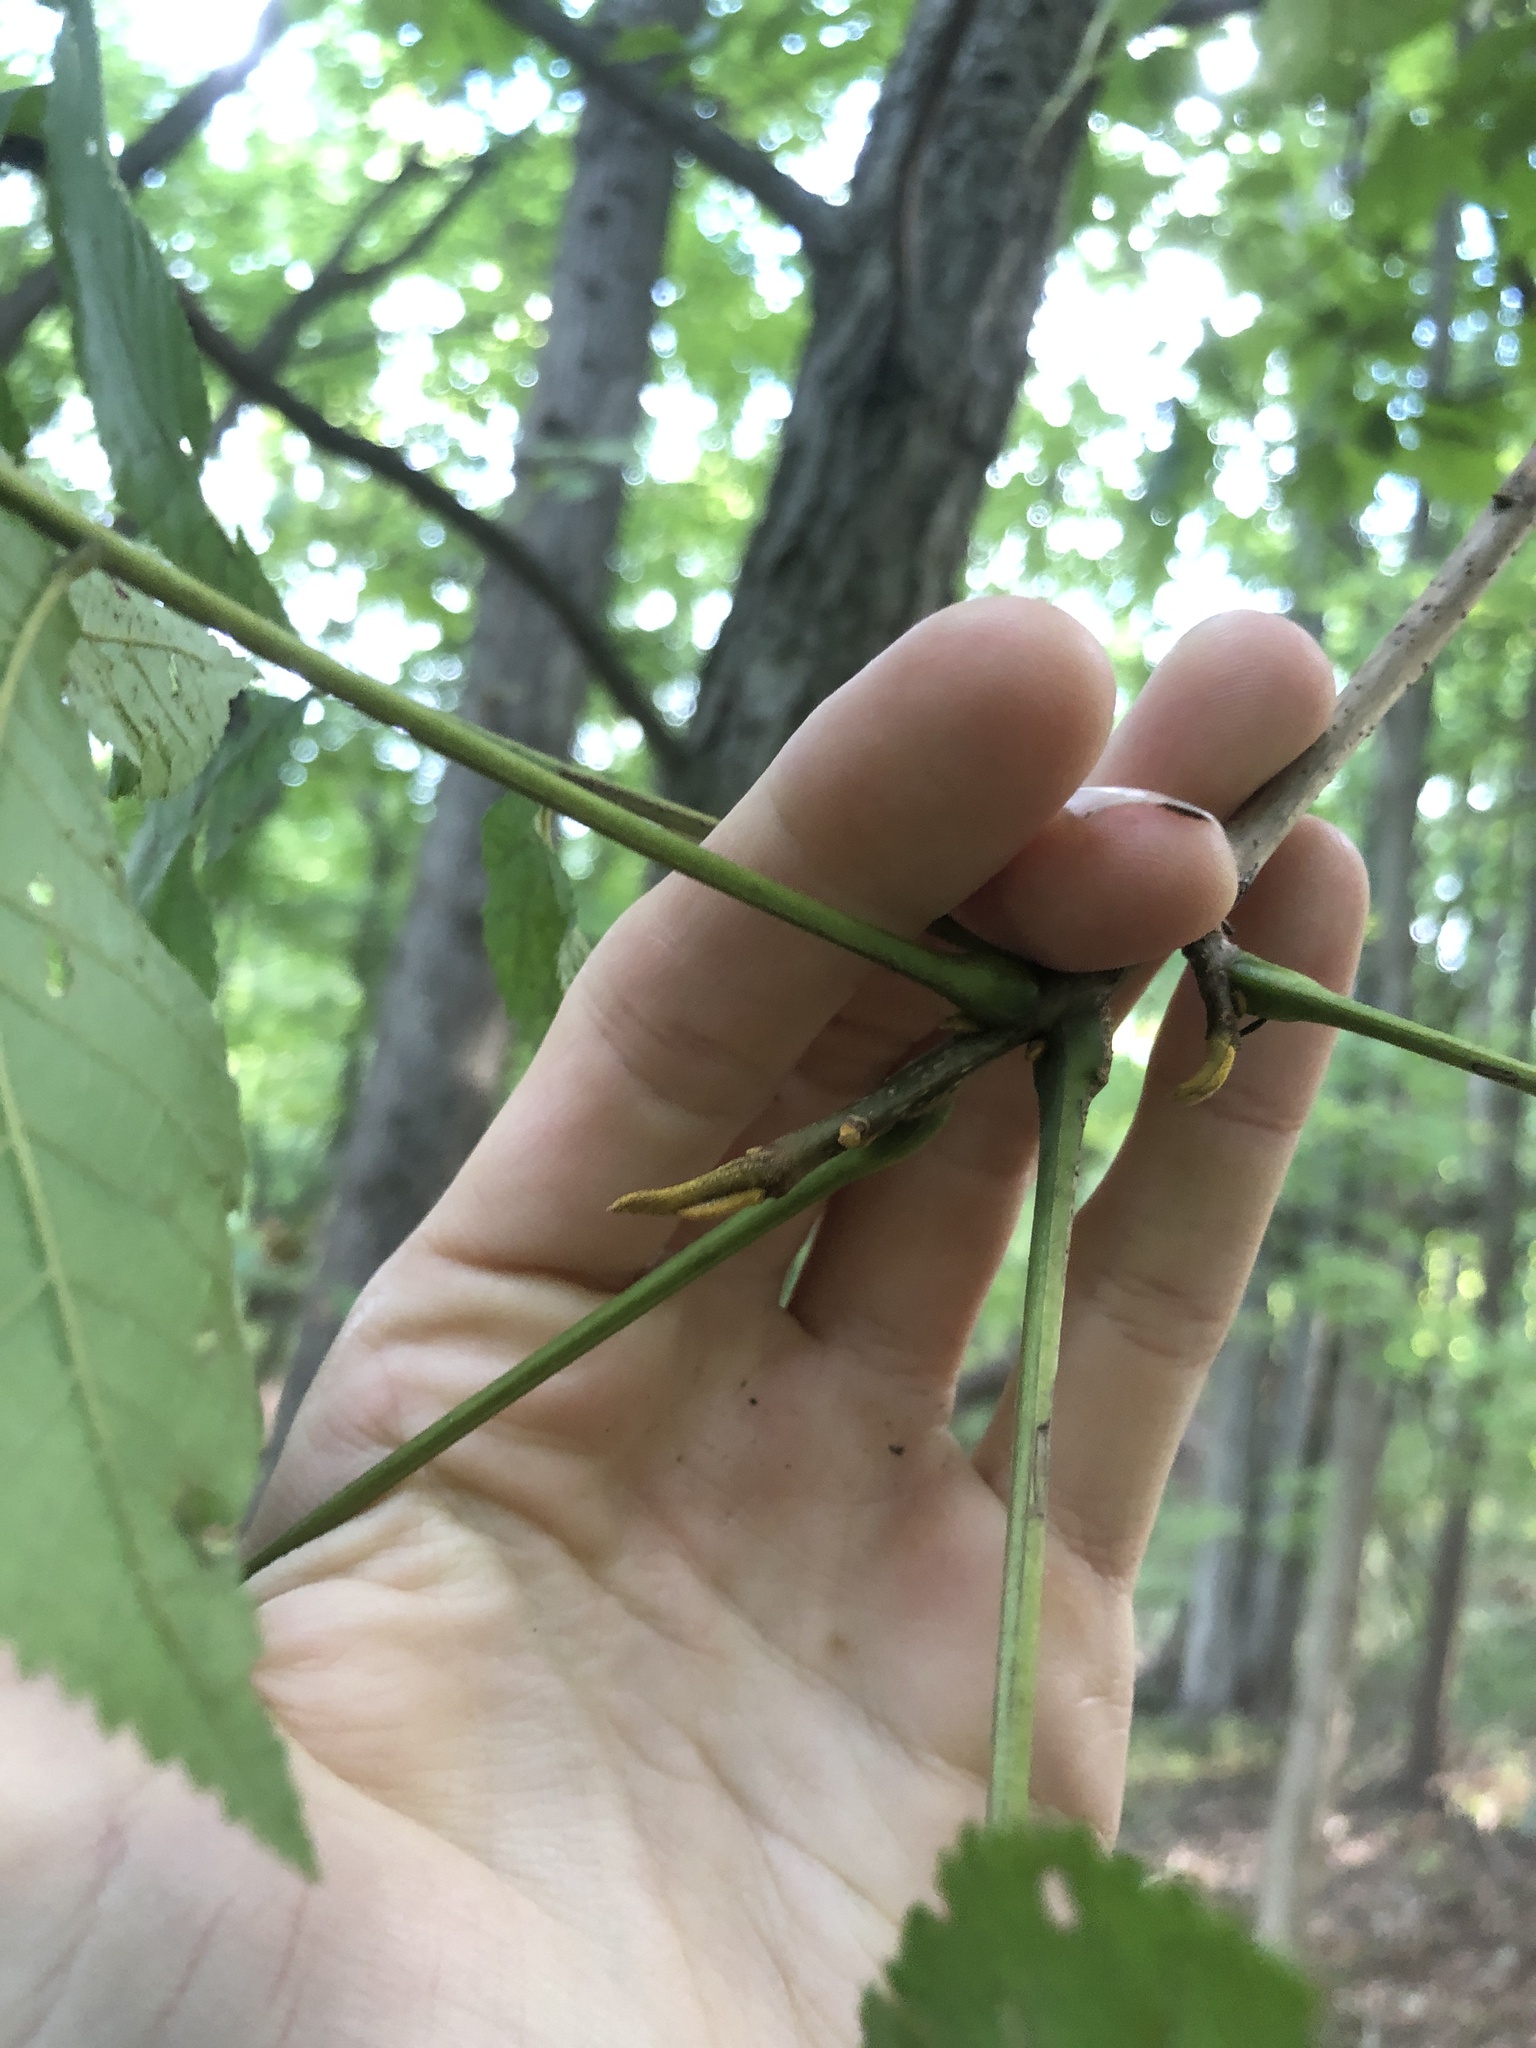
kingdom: Plantae
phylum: Tracheophyta
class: Magnoliopsida
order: Fagales
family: Juglandaceae
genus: Carya
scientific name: Carya cordiformis
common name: Bitternut hickory
